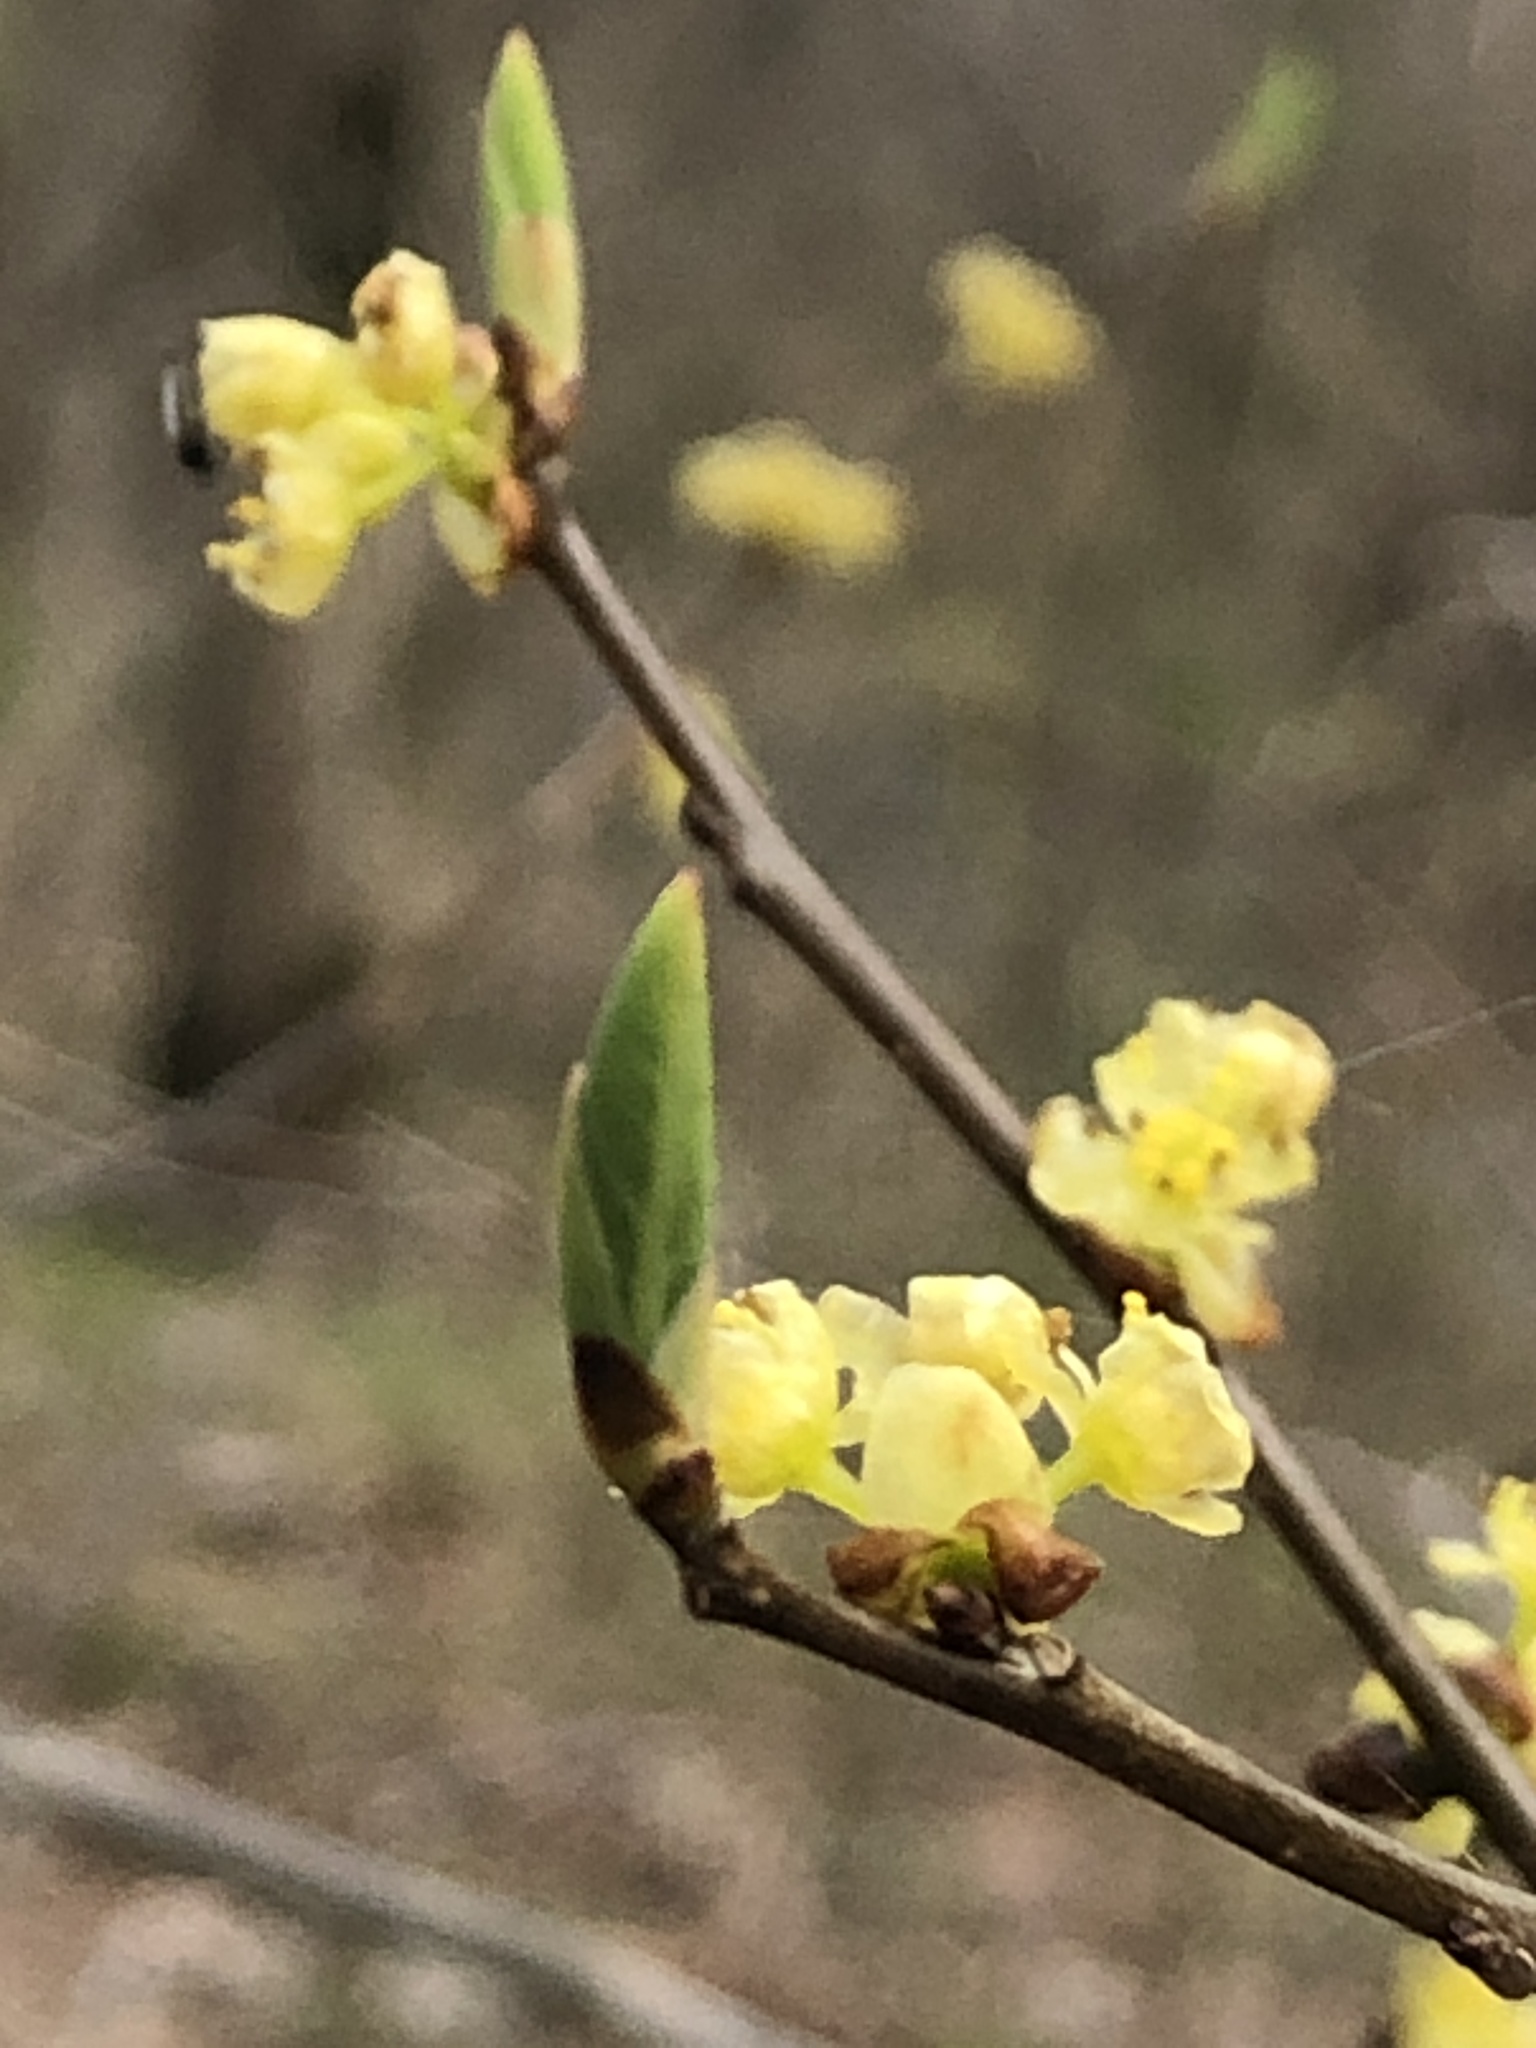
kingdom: Plantae
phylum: Tracheophyta
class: Magnoliopsida
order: Laurales
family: Lauraceae
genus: Lindera
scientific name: Lindera benzoin
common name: Spicebush
